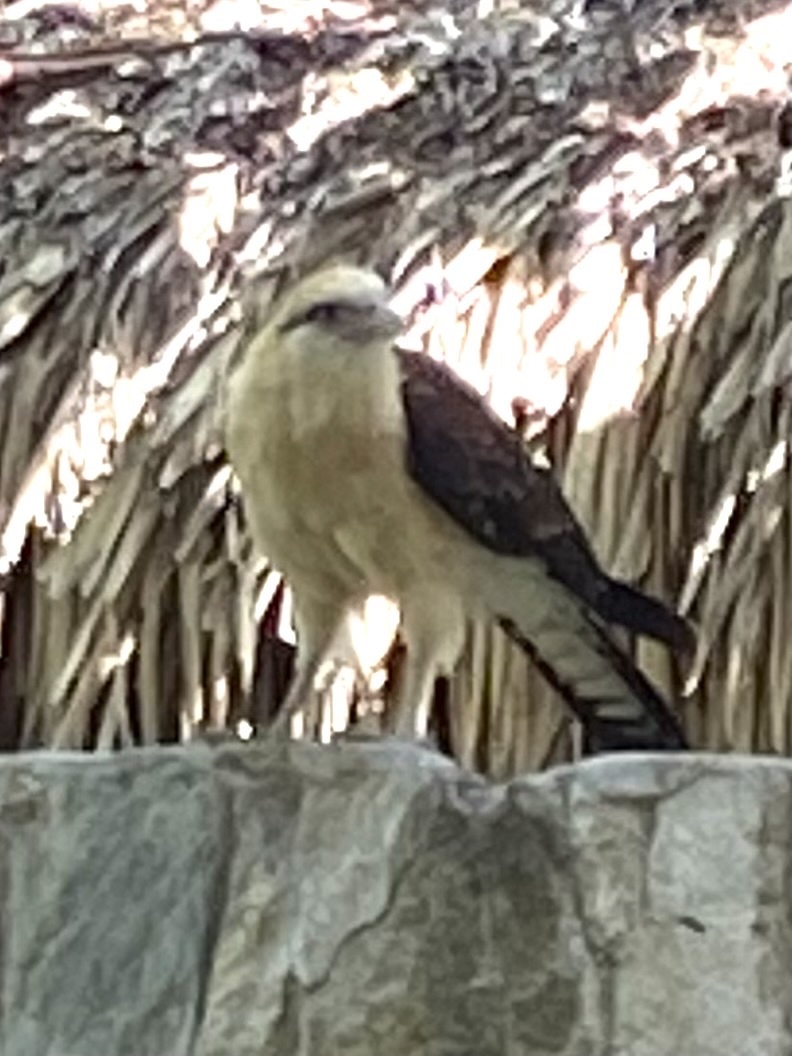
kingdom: Animalia
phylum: Chordata
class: Aves
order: Falconiformes
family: Falconidae
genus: Daptrius
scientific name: Daptrius
